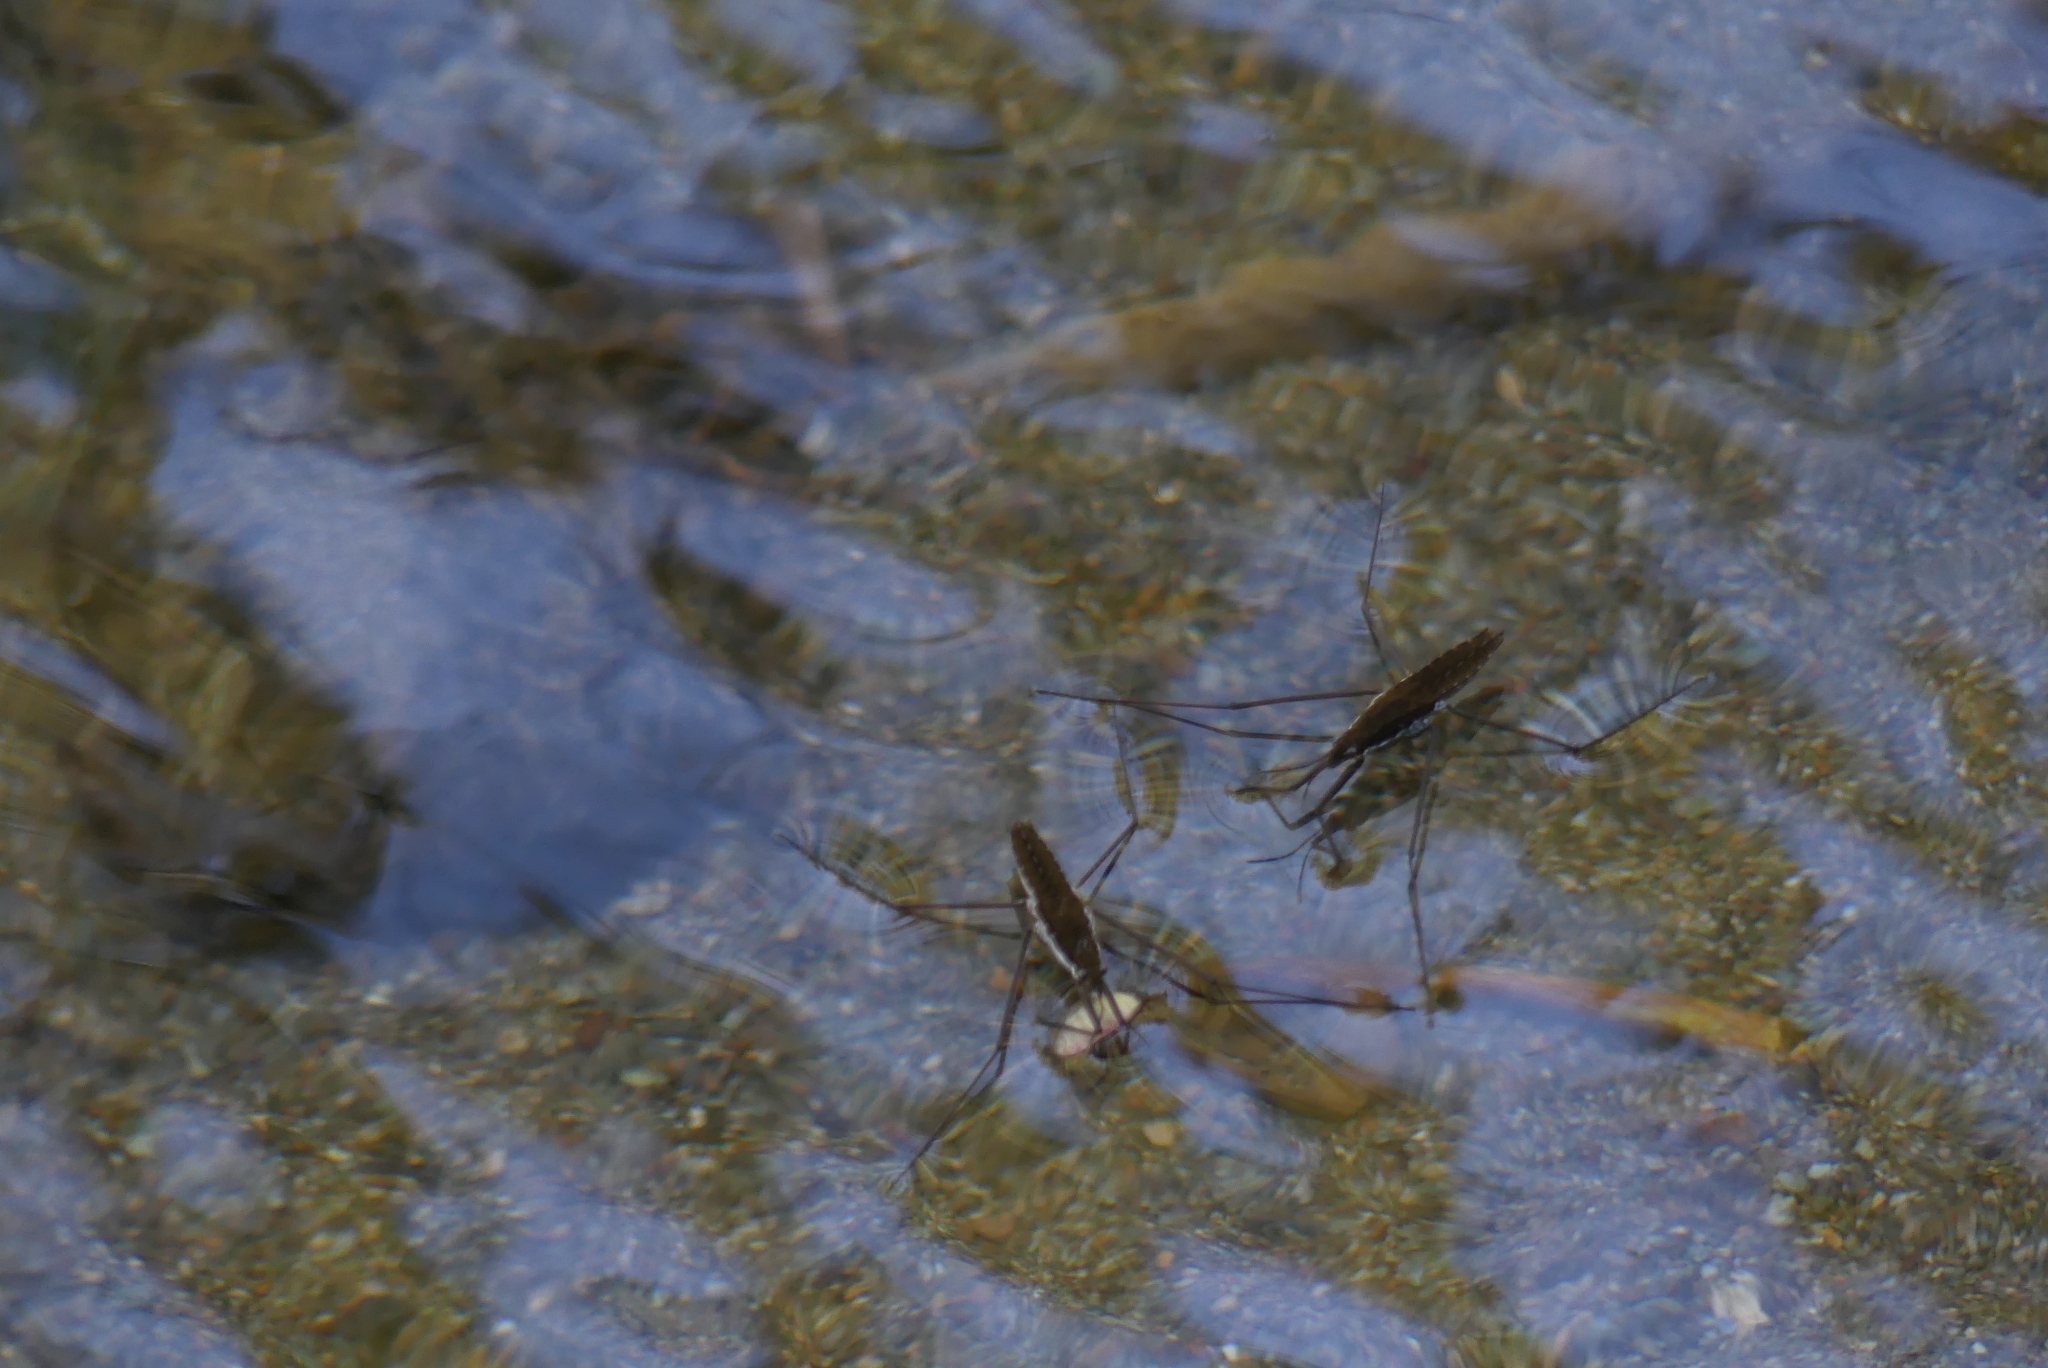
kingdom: Animalia
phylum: Arthropoda
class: Insecta
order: Hemiptera
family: Gerridae
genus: Aquarius
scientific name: Aquarius remigis
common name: Common water strider
